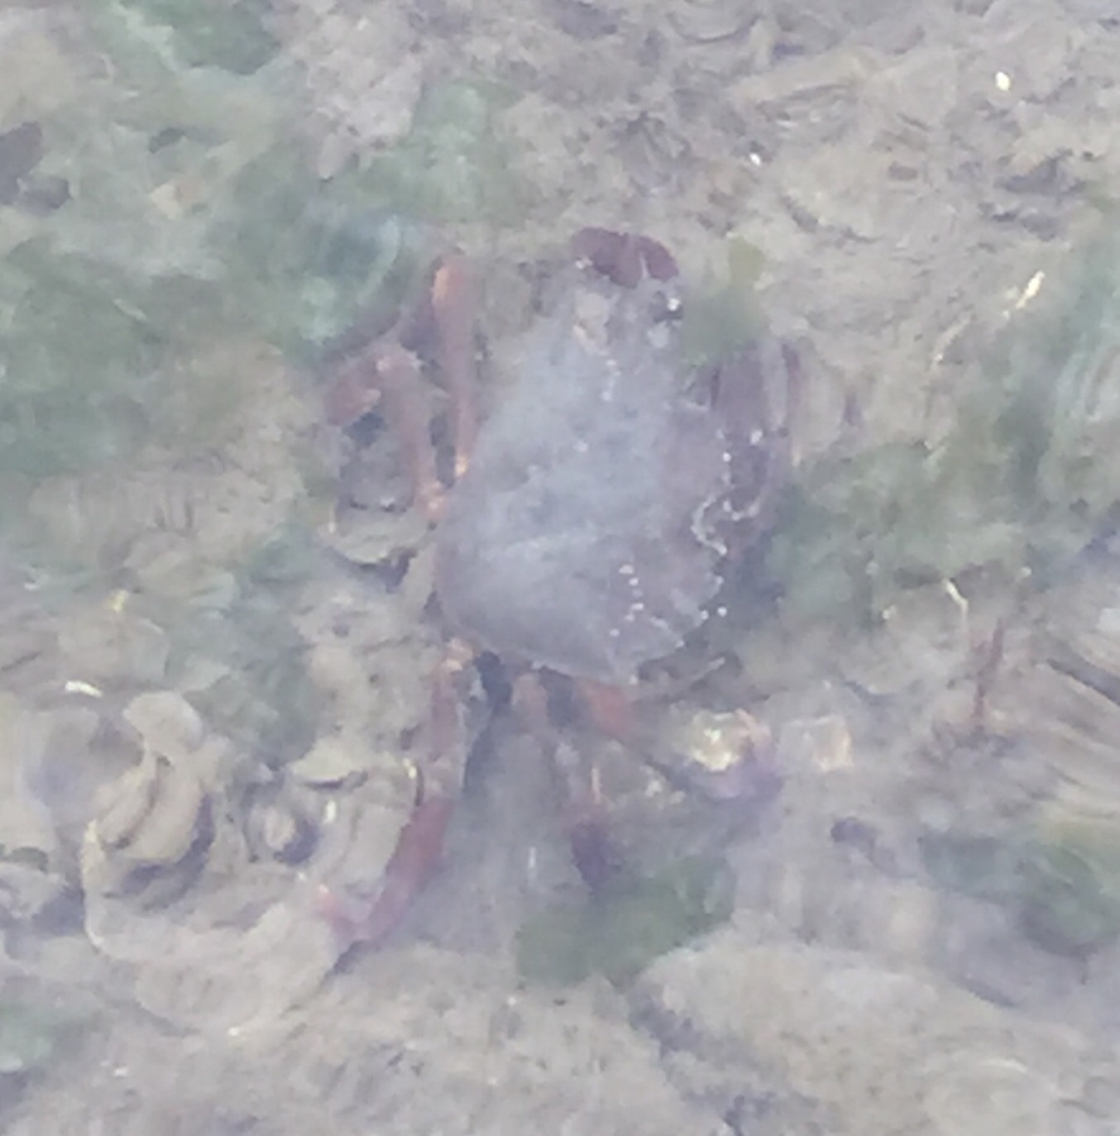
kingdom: Animalia
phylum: Arthropoda
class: Malacostraca
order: Decapoda
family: Carcinidae
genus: Carcinus
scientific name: Carcinus maenas
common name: European green crab
